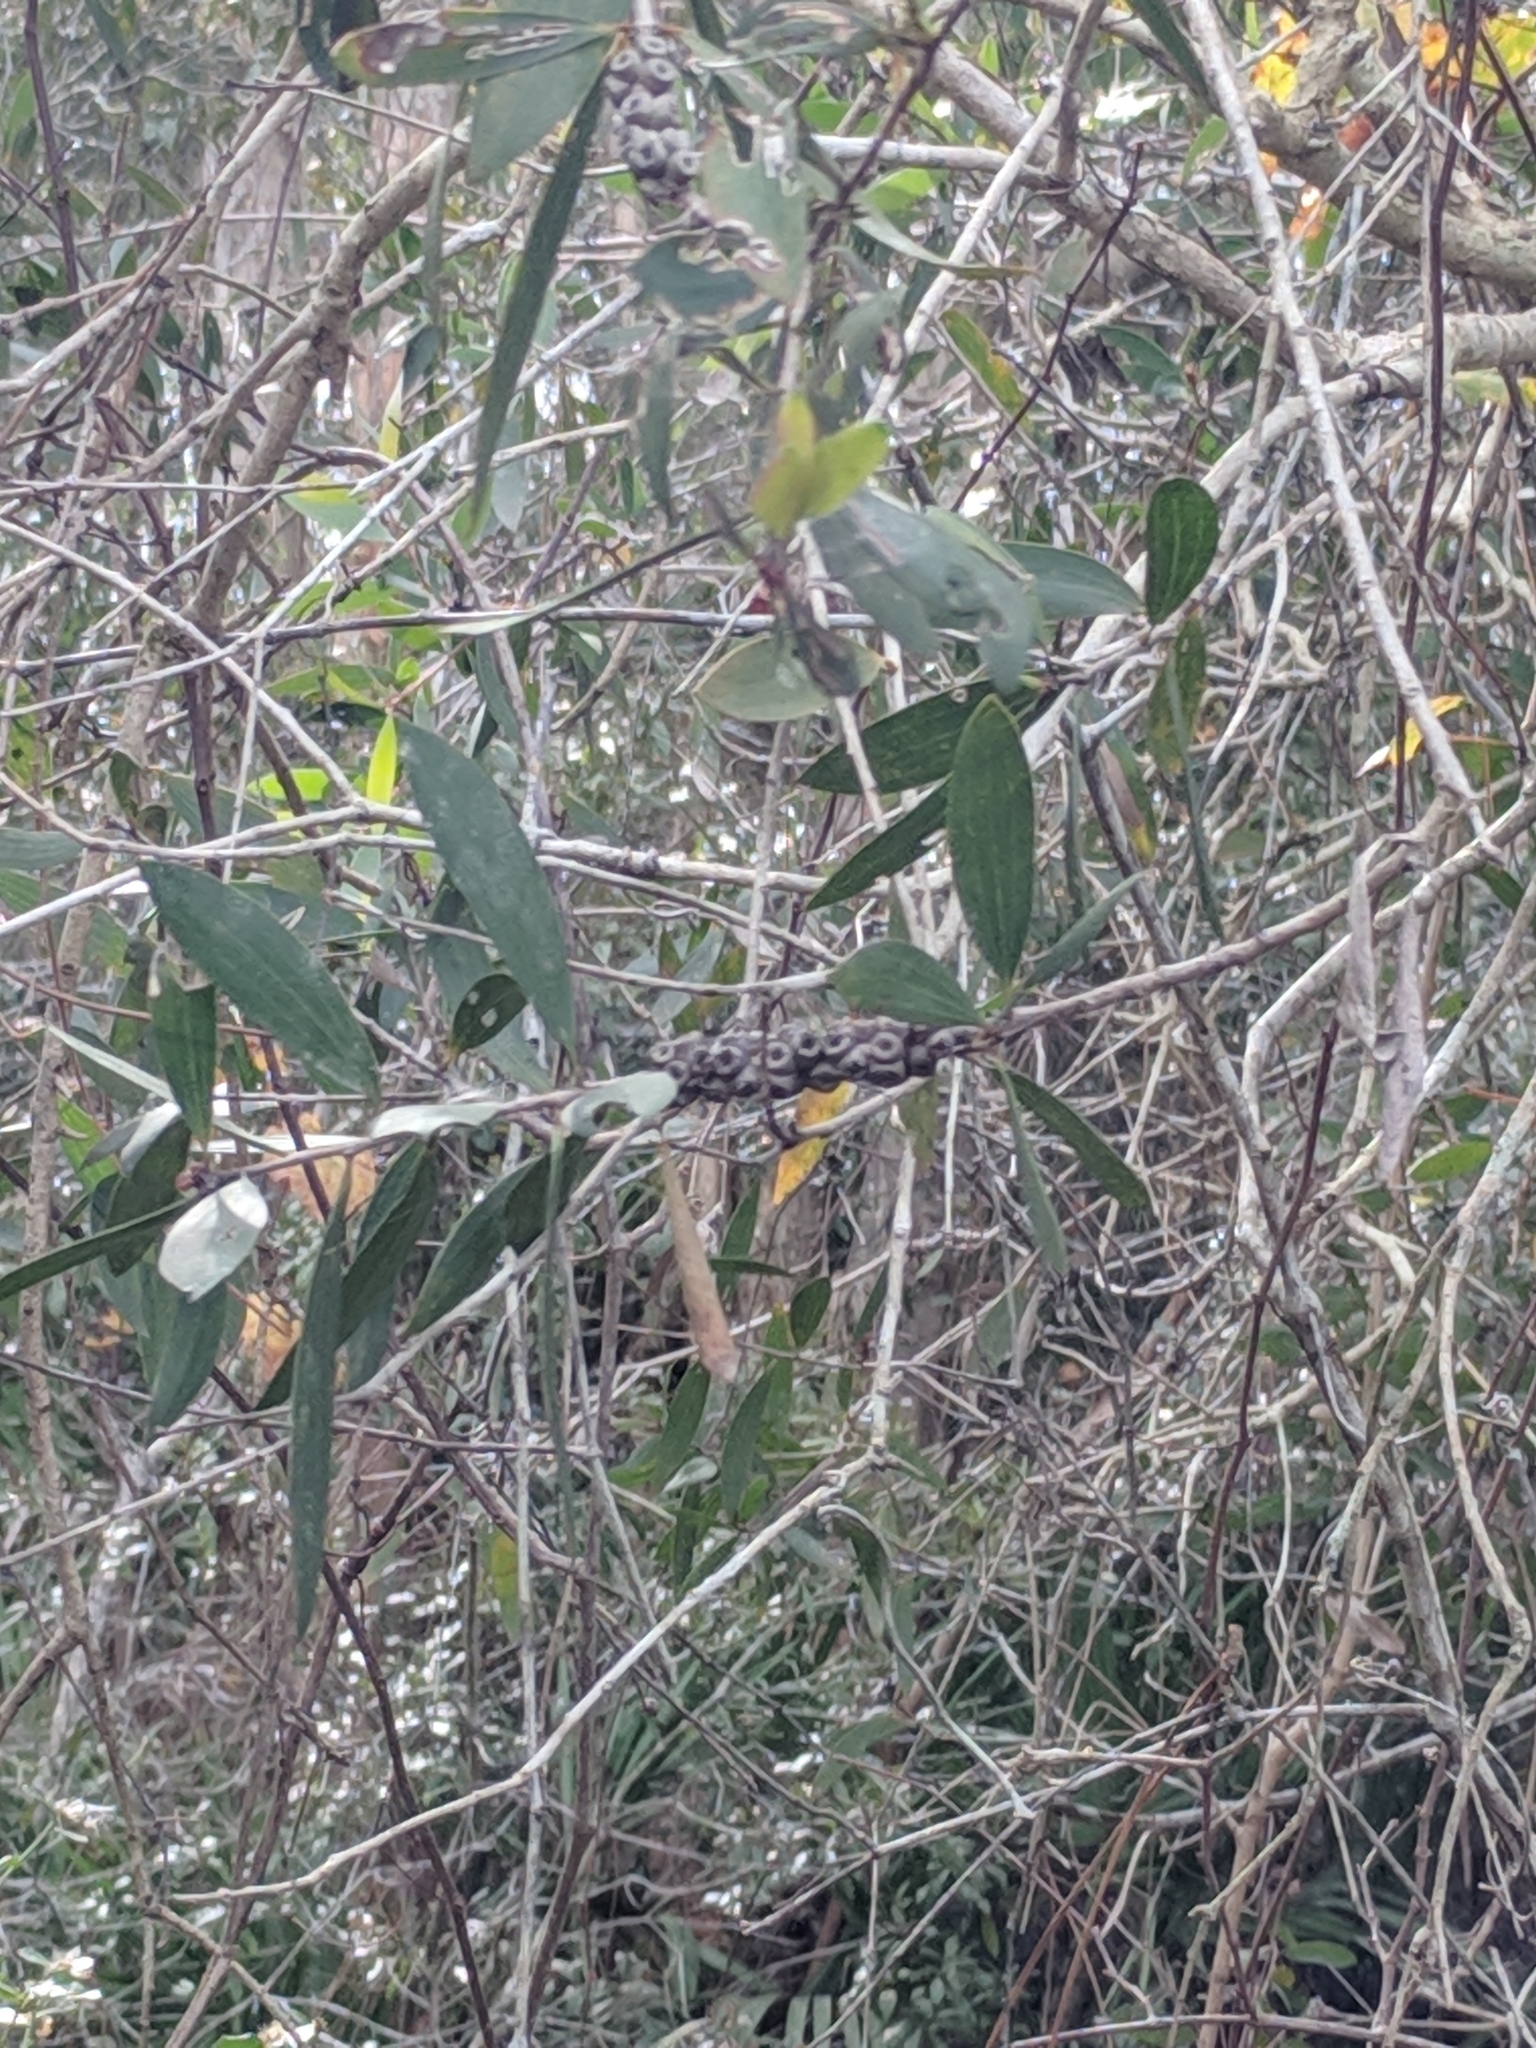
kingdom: Plantae
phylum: Tracheophyta
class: Magnoliopsida
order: Myrtales
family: Myrtaceae
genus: Melaleuca
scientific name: Melaleuca quinquenervia
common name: Punktree
